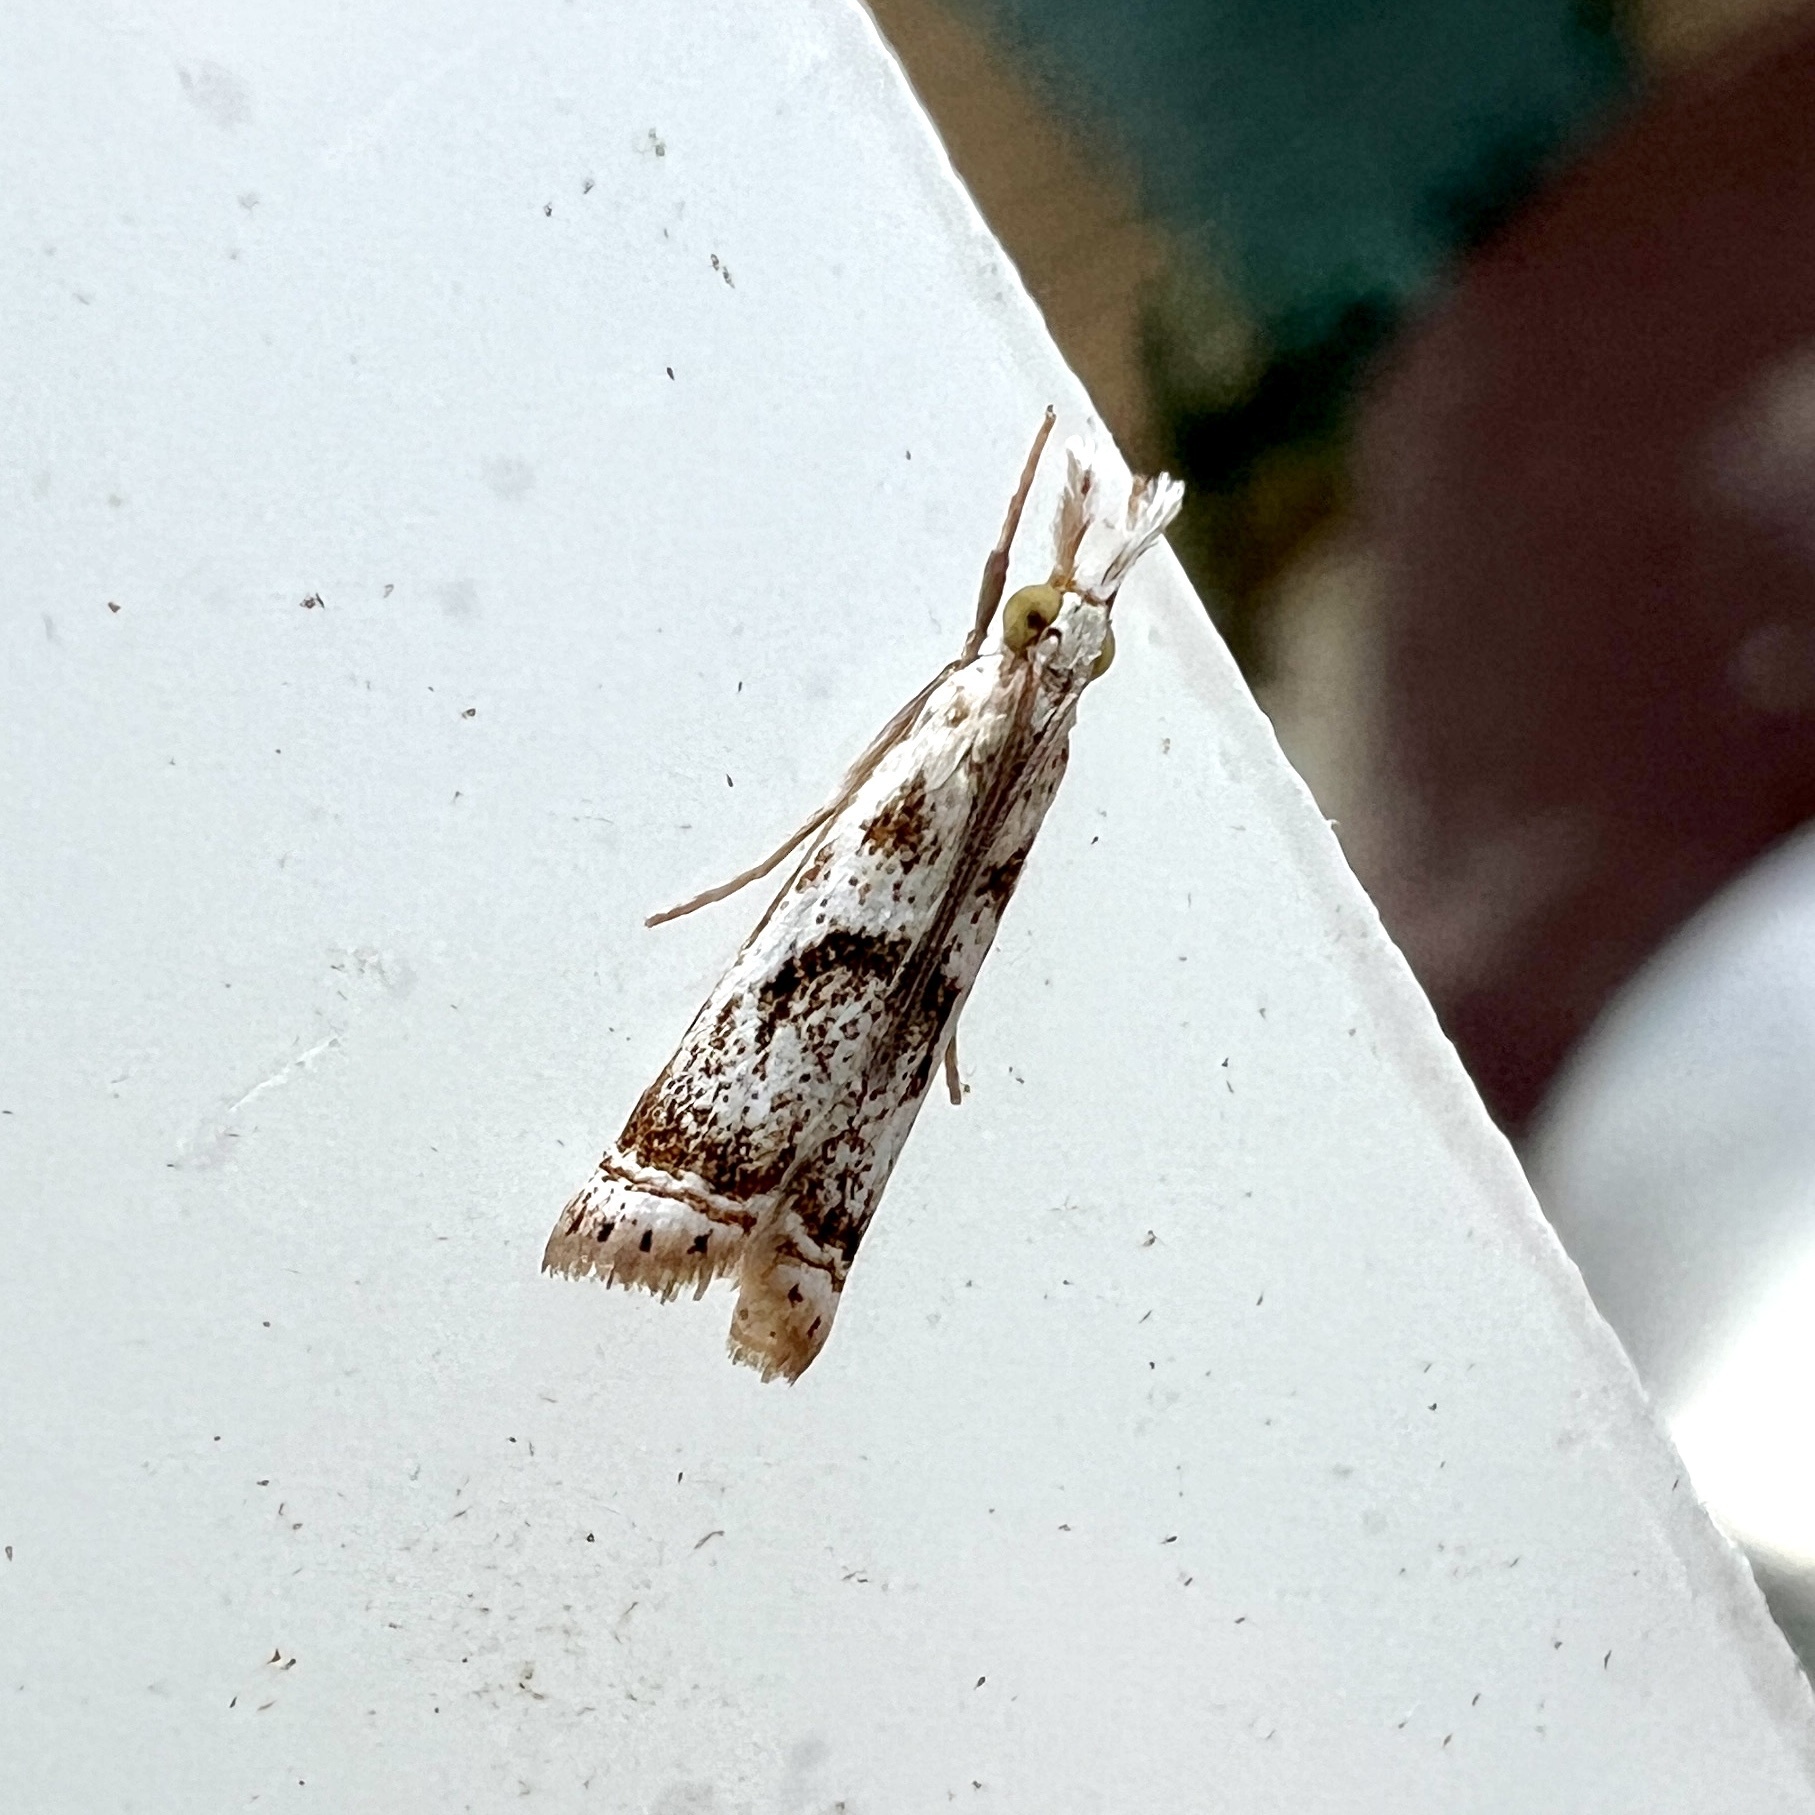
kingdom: Animalia
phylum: Arthropoda
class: Insecta
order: Lepidoptera
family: Crambidae
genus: Microcrambus
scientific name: Microcrambus elegans
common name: Elegant grass-veneer
